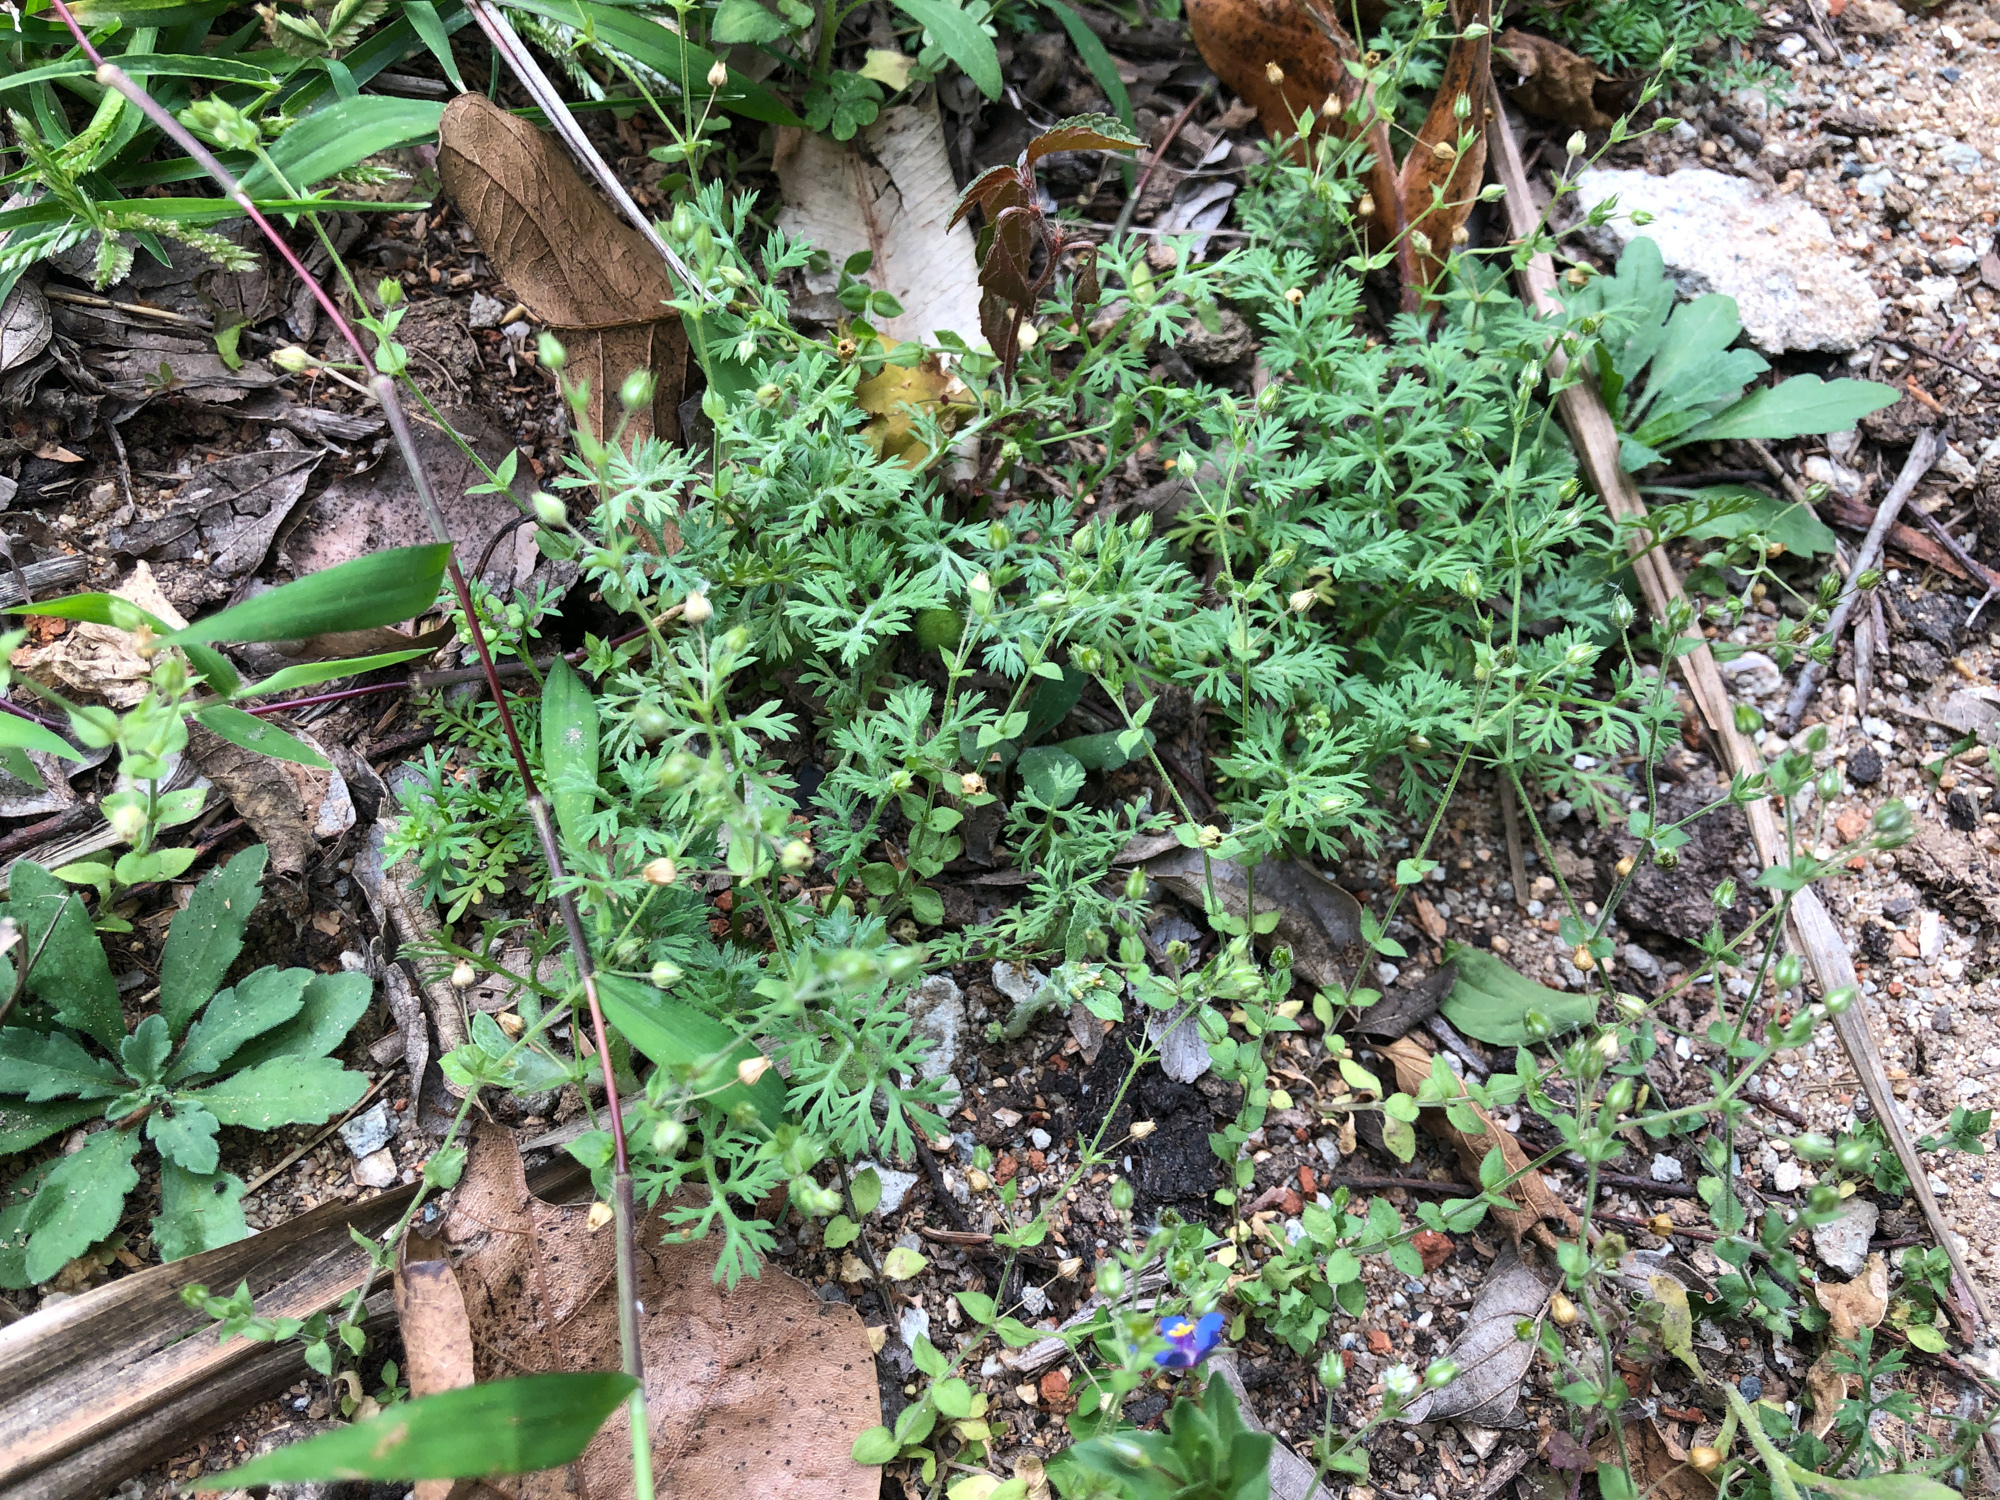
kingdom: Plantae
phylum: Tracheophyta
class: Magnoliopsida
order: Ericales
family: Primulaceae
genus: Lysimachia
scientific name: Lysimachia loeflingii
